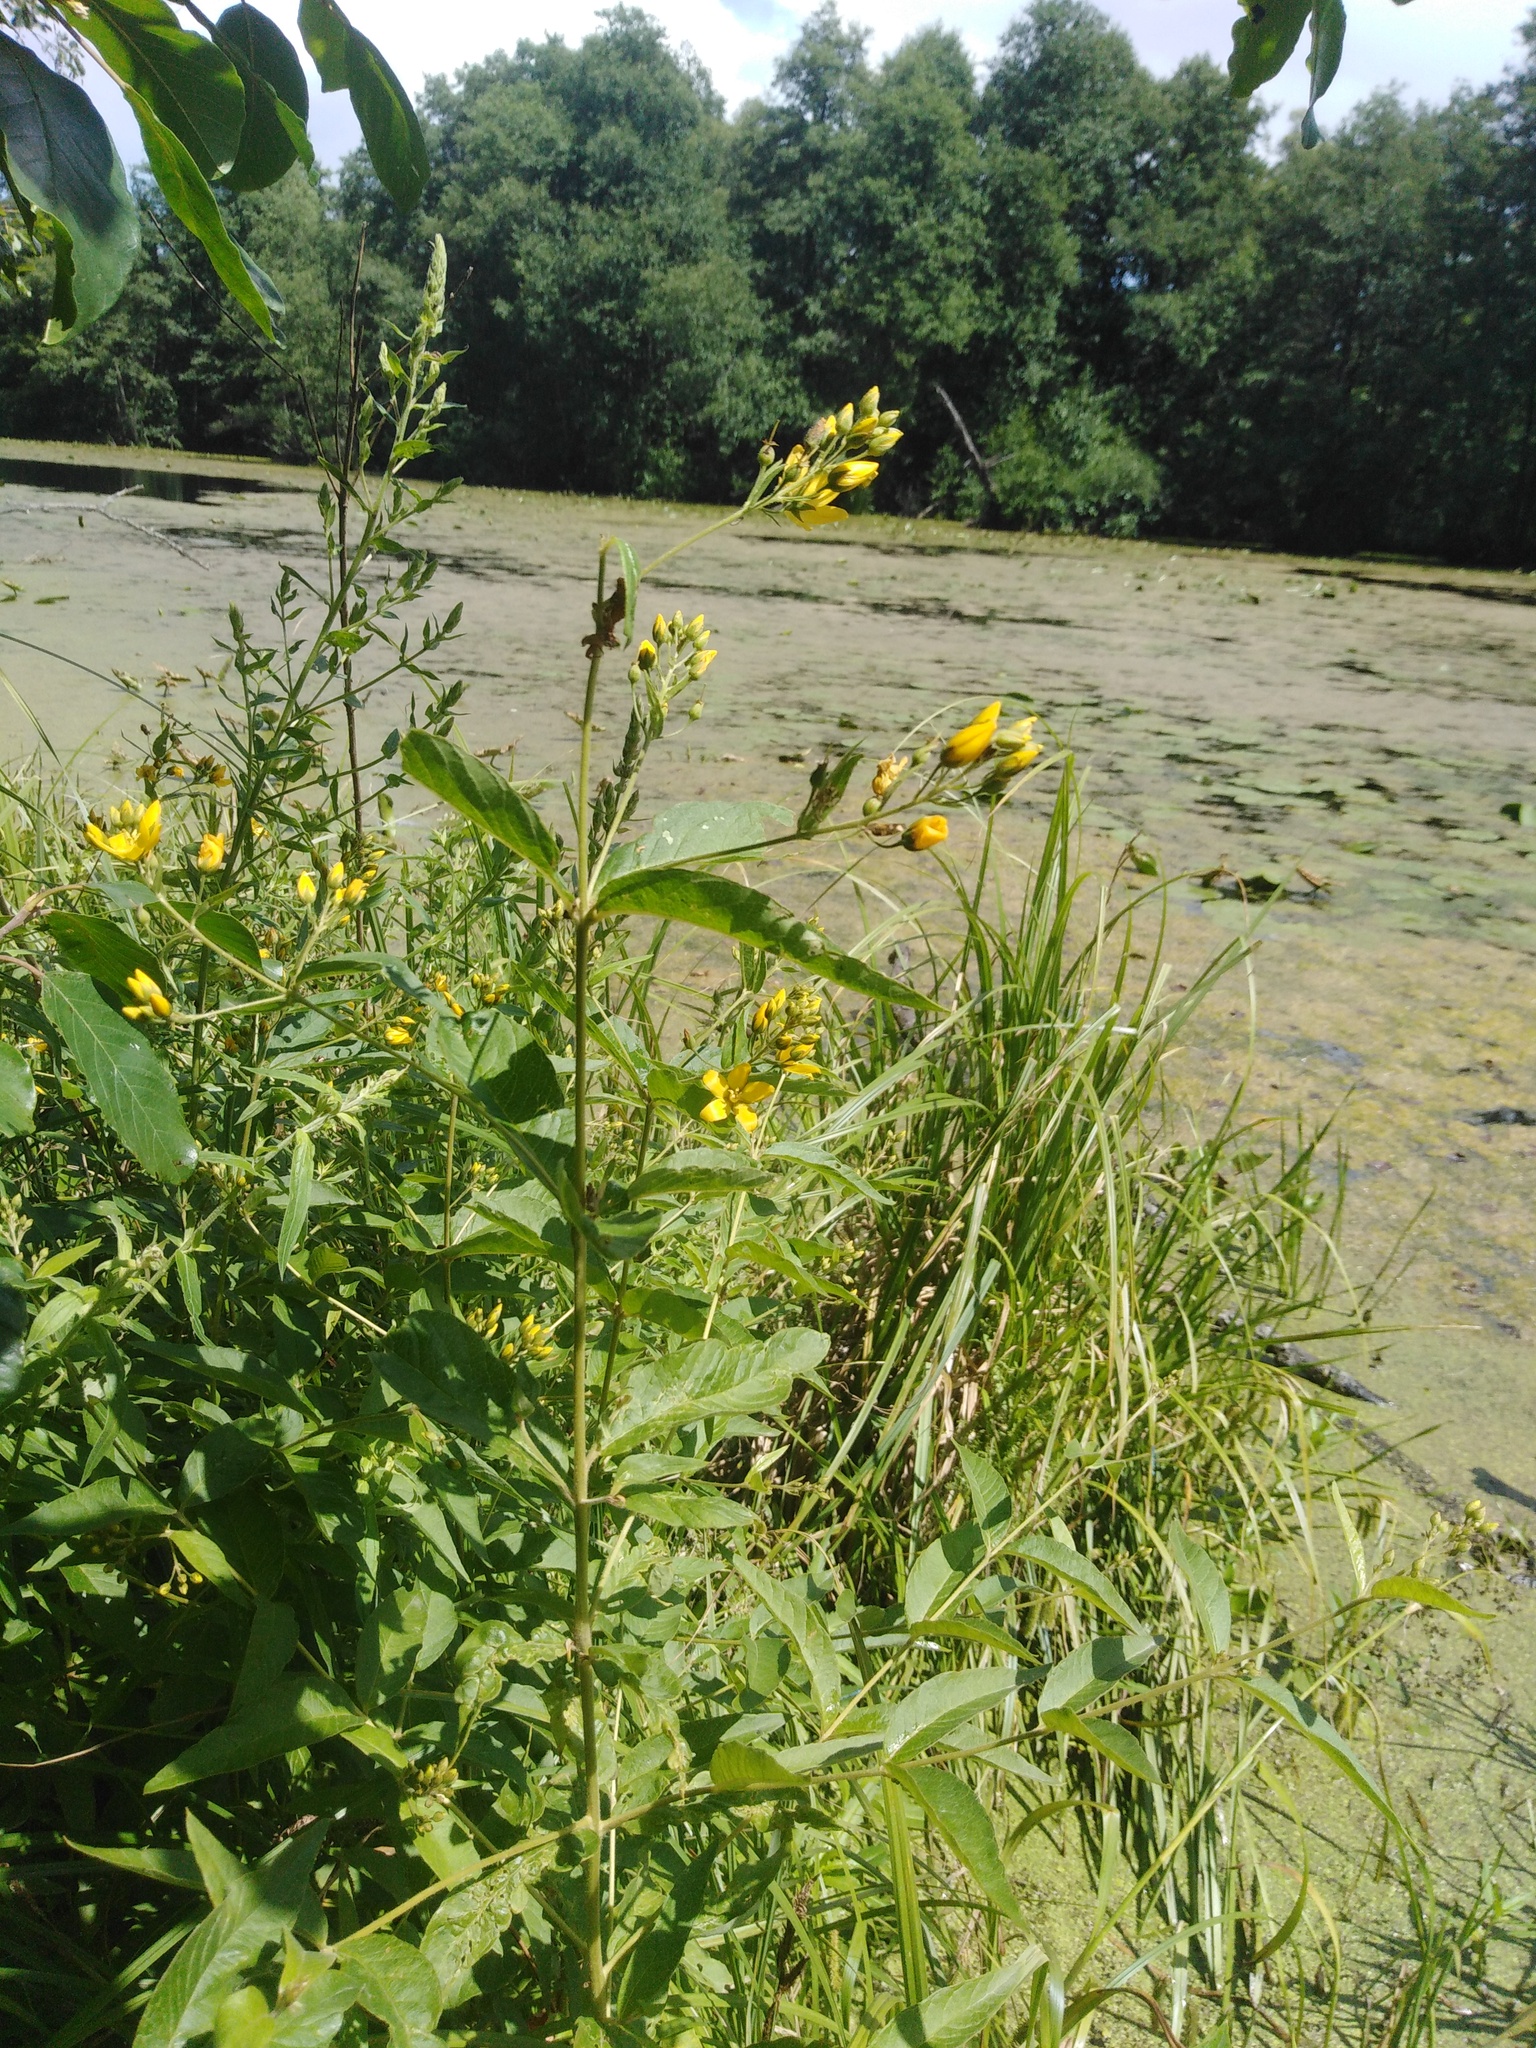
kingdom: Plantae
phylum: Tracheophyta
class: Magnoliopsida
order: Ericales
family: Primulaceae
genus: Lysimachia
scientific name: Lysimachia vulgaris
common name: Yellow loosestrife
